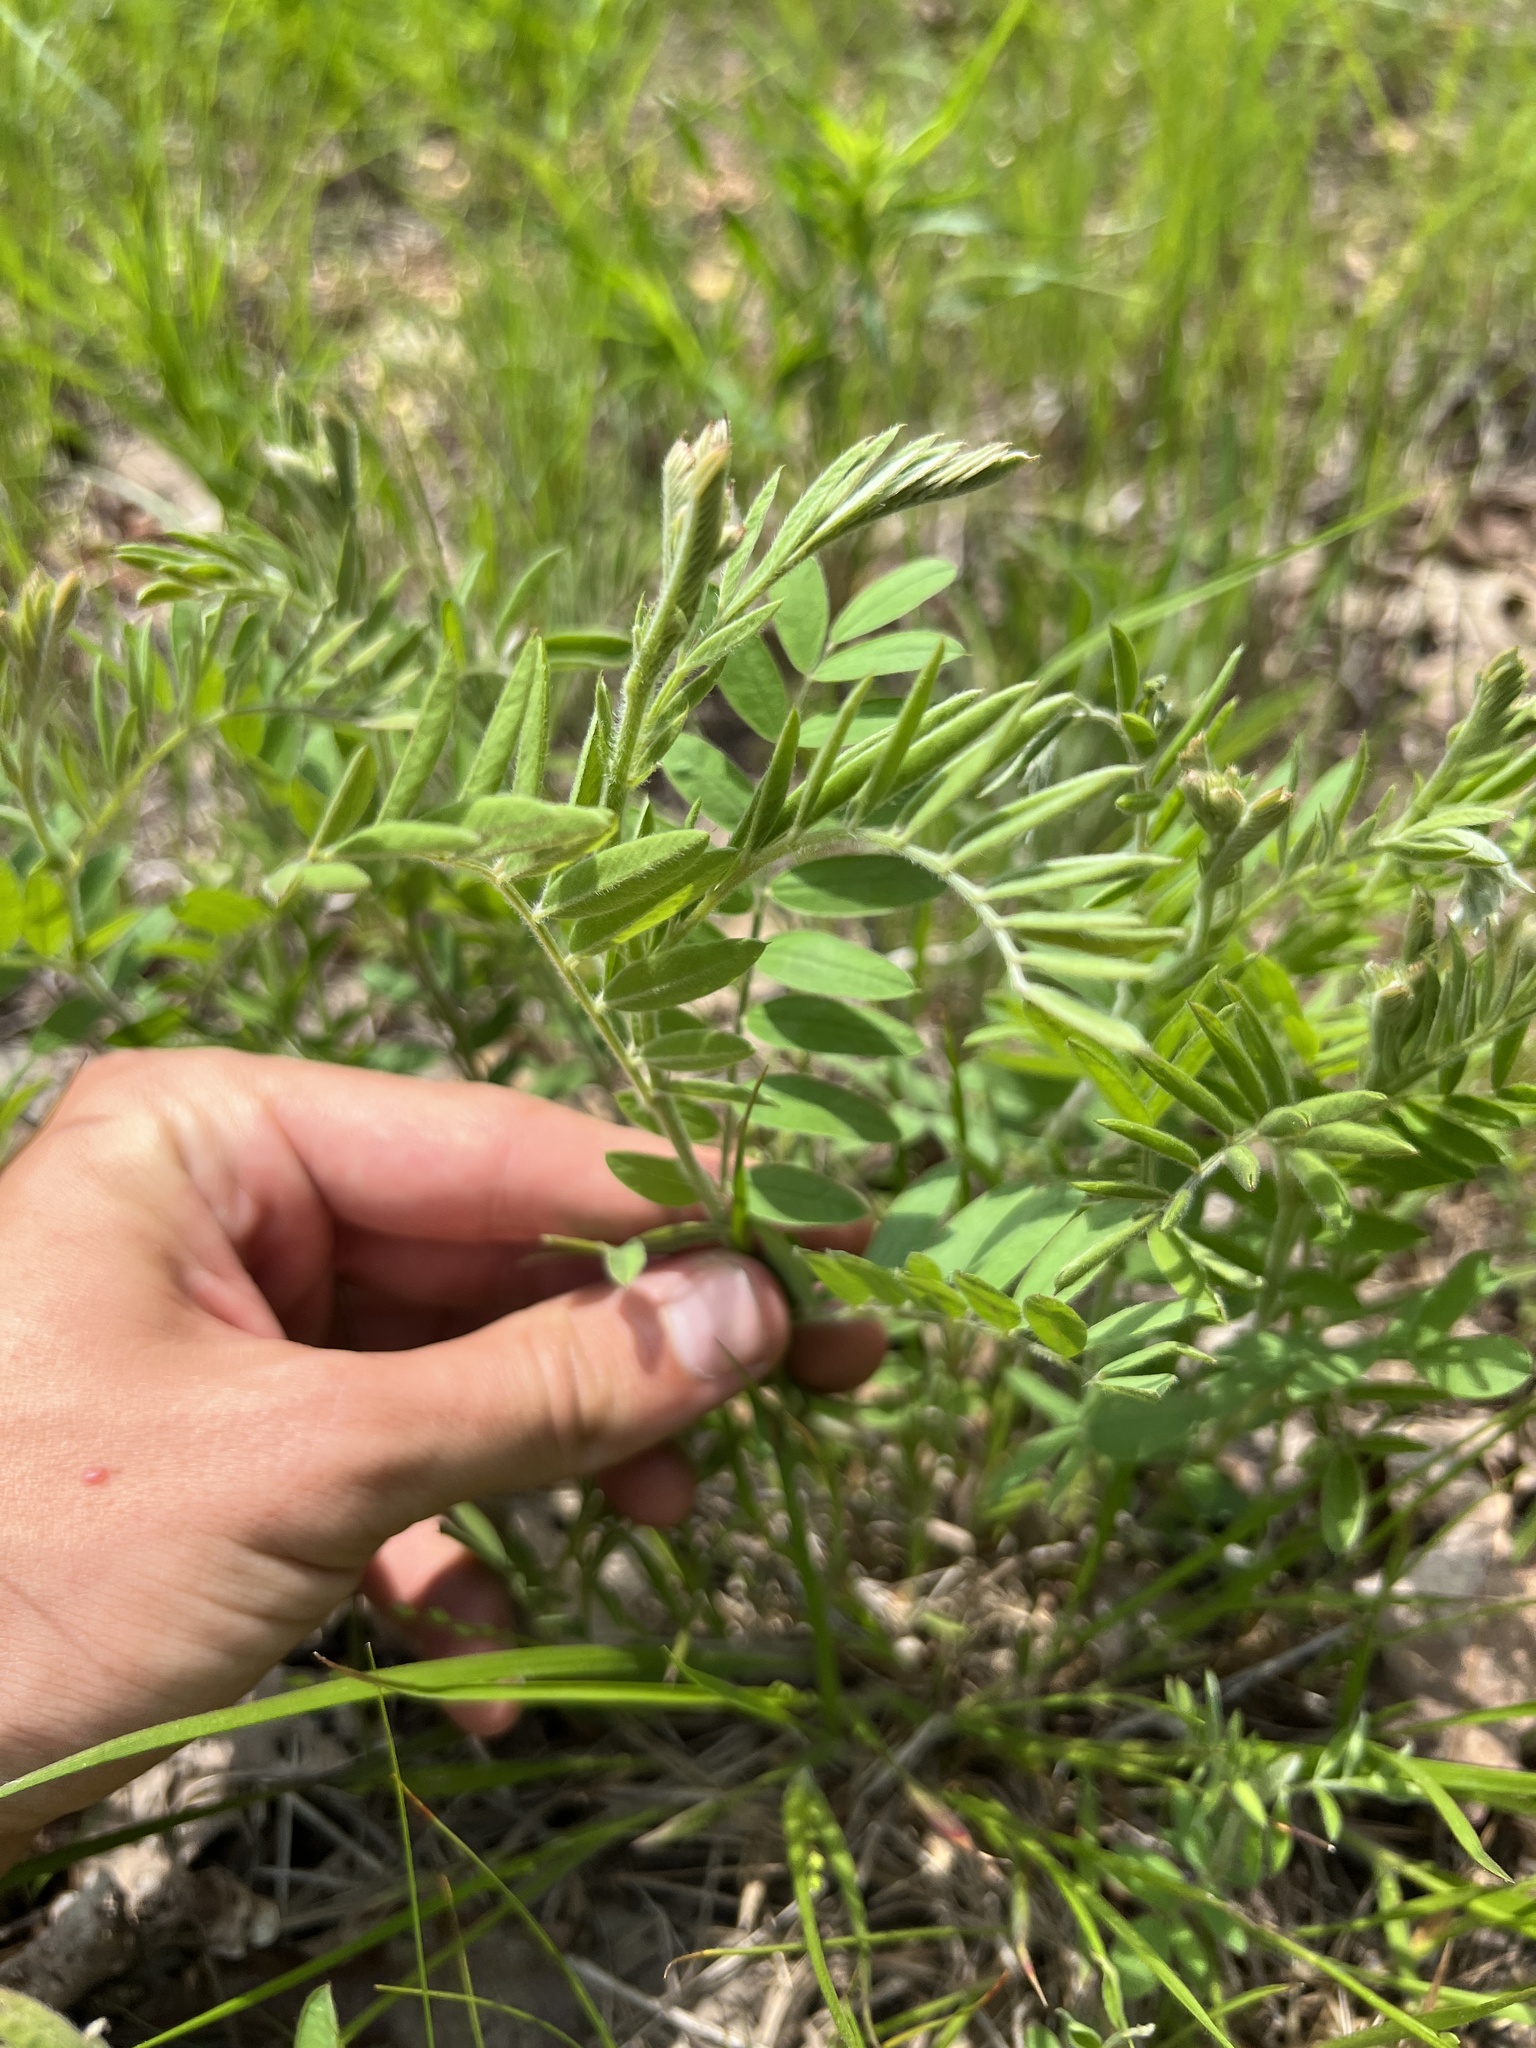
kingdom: Plantae
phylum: Tracheophyta
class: Magnoliopsida
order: Fabales
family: Fabaceae
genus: Tephrosia
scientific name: Tephrosia virginiana
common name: Rabbit-pea
